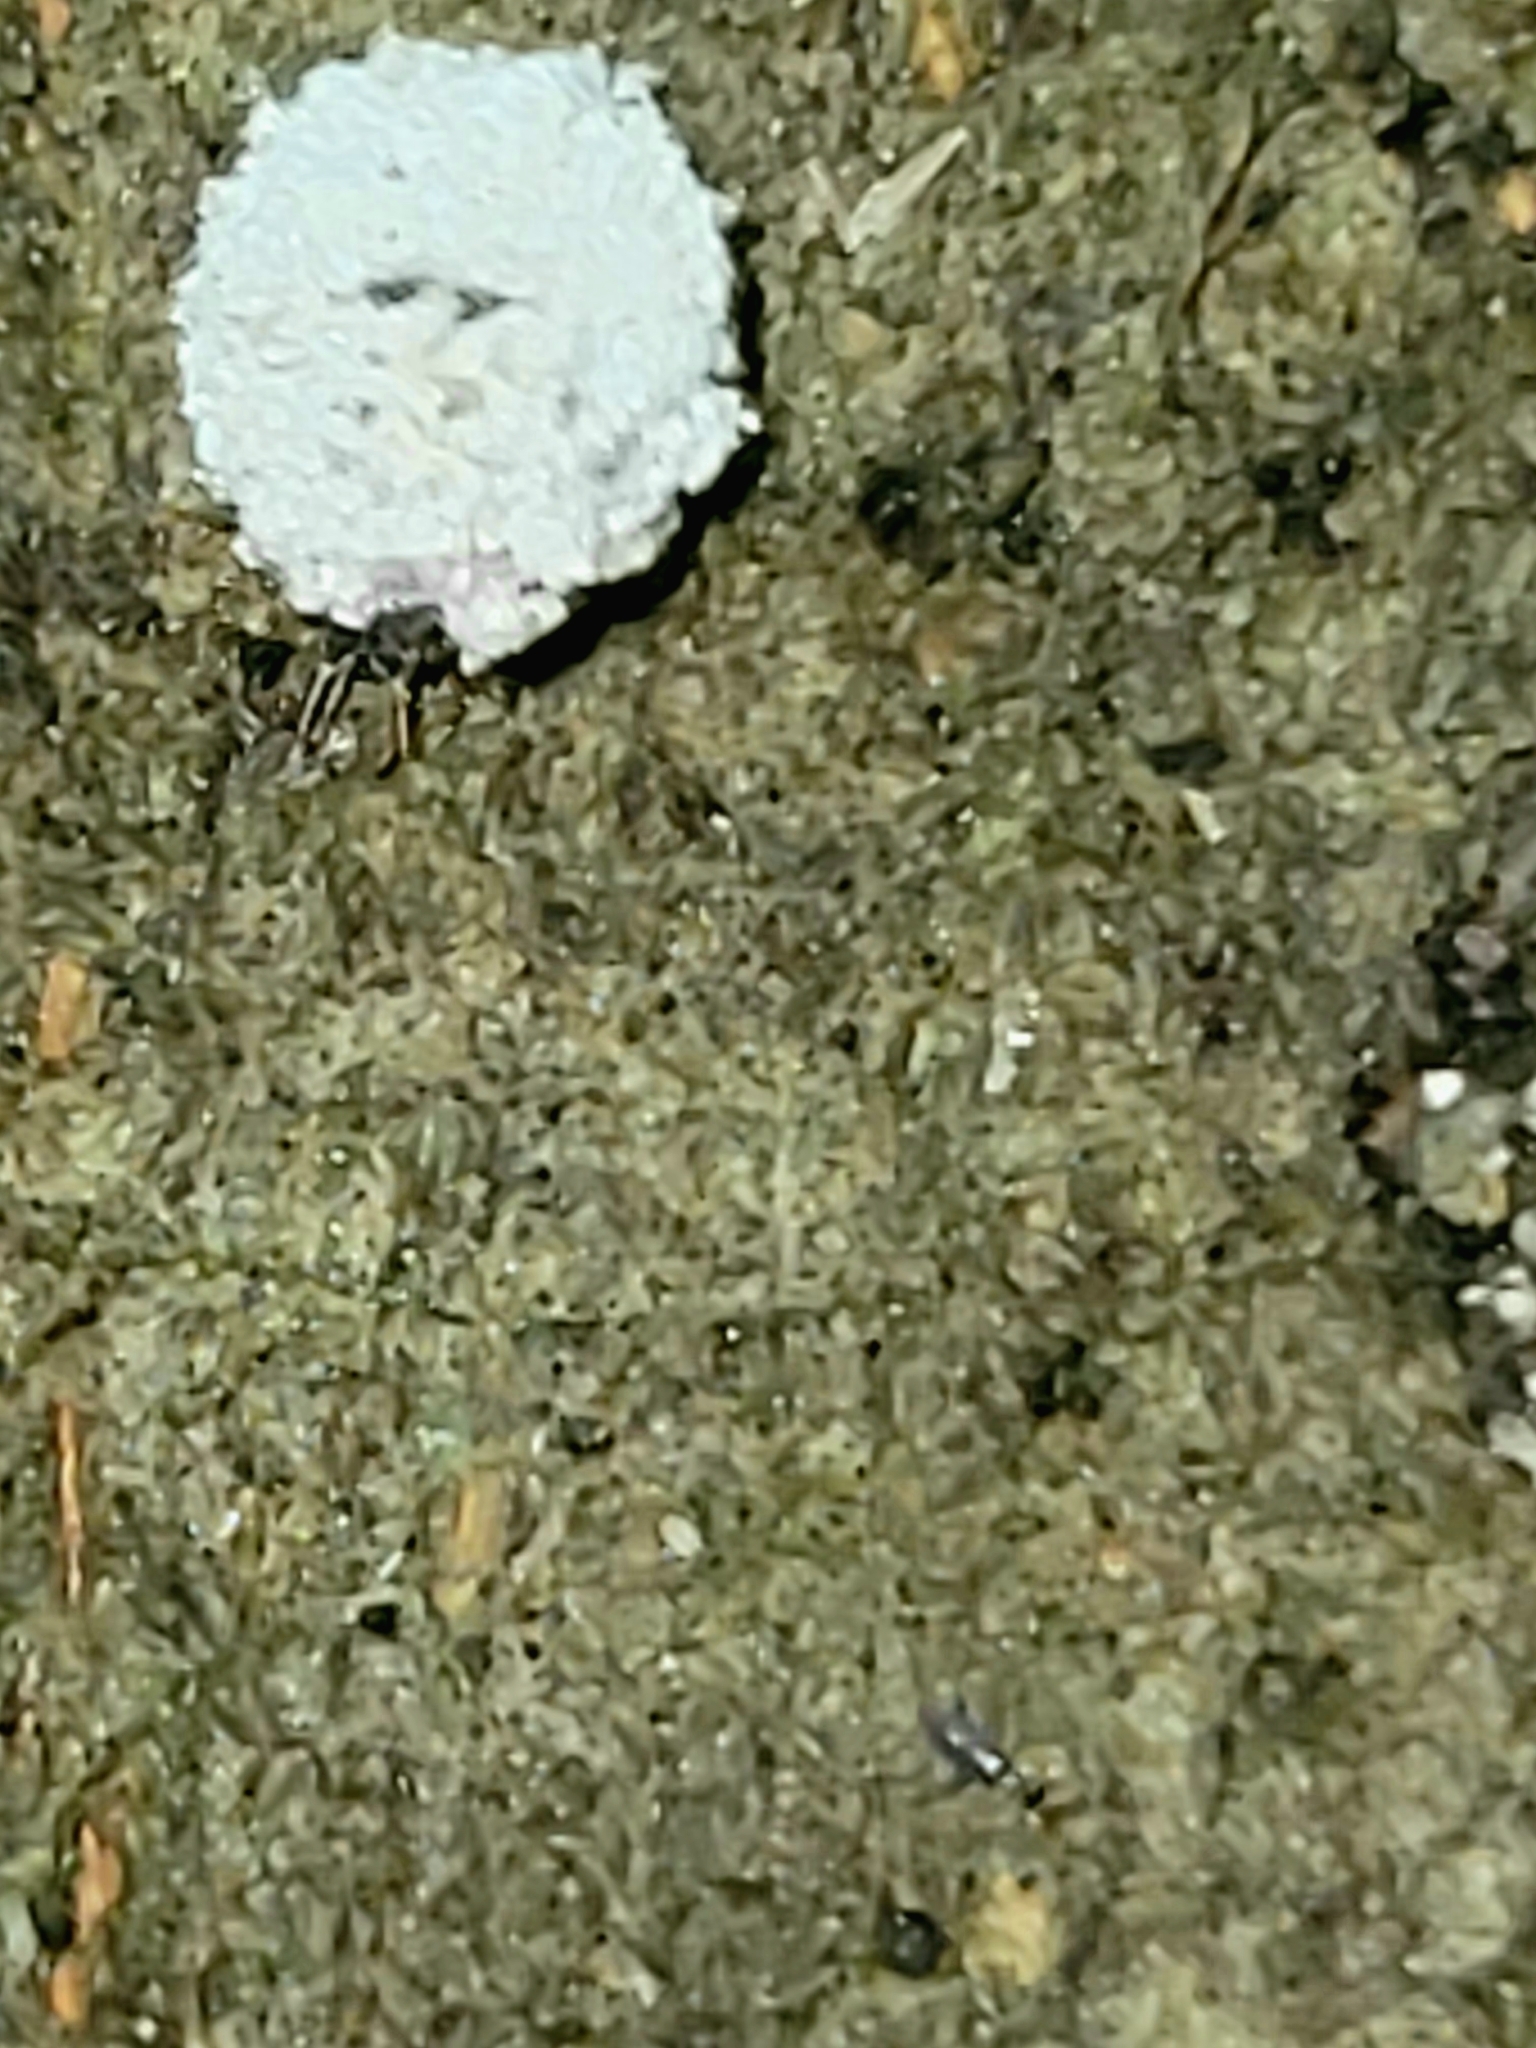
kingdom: Animalia
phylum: Arthropoda
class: Insecta
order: Neuroptera
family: Chrysopidae
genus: Leucochrysa
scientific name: Leucochrysa pavida
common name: Lichen-carrying green lacewing
